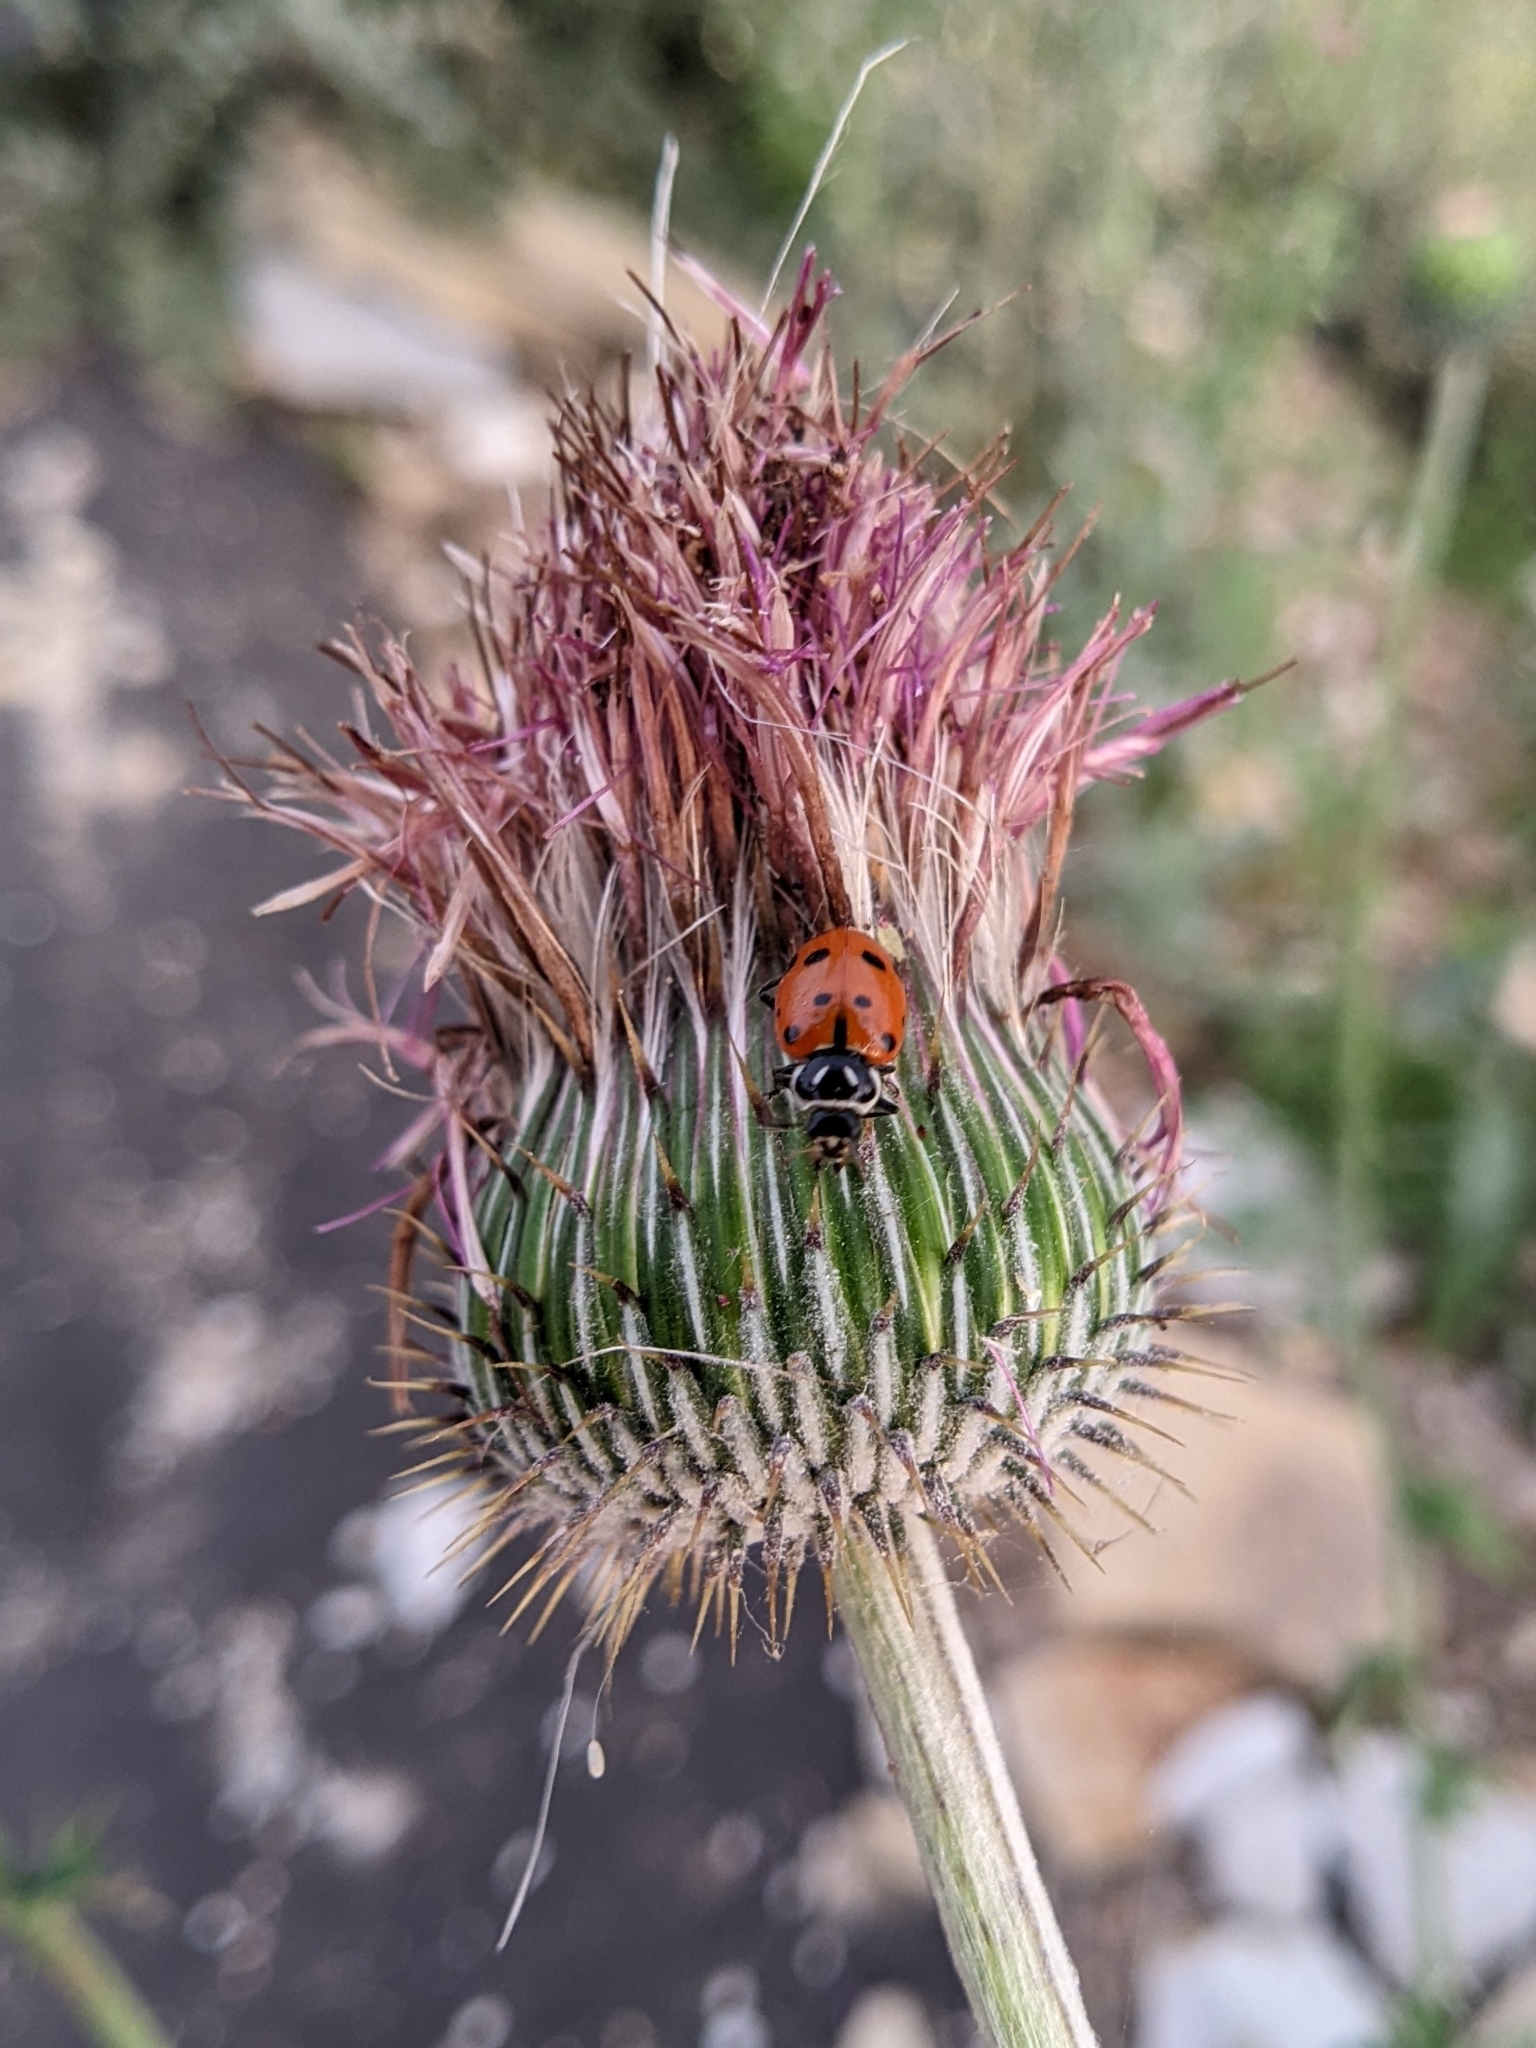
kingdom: Animalia
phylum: Arthropoda
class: Insecta
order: Coleoptera
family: Coccinellidae
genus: Hippodamia
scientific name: Hippodamia convergens
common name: Convergent lady beetle
